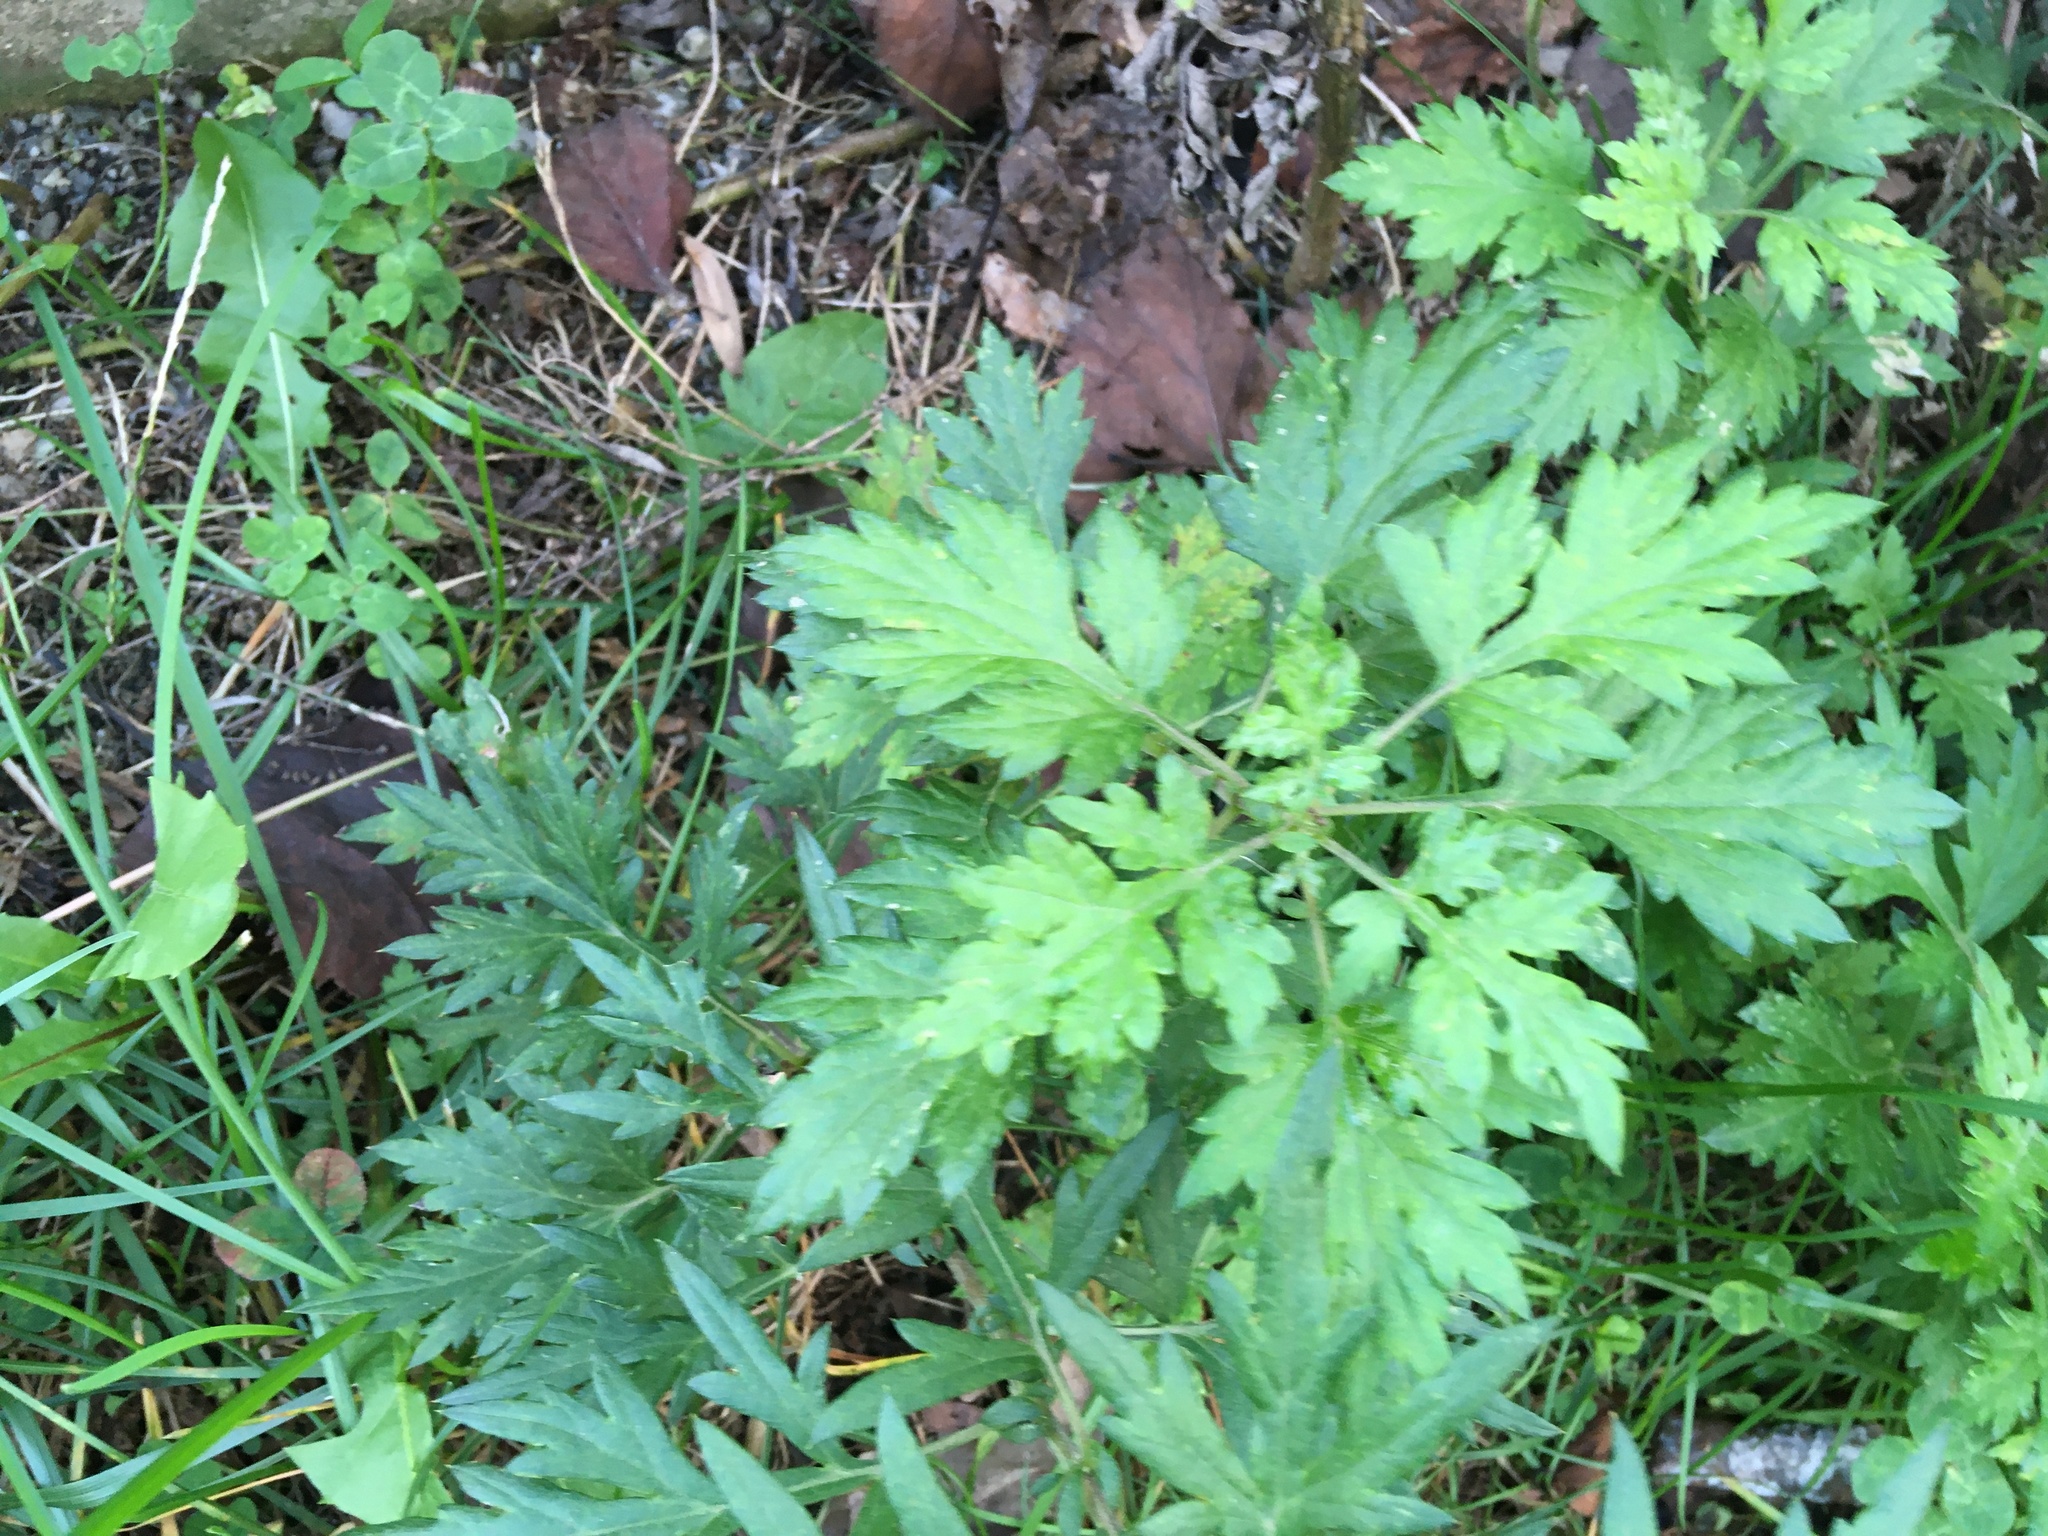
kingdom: Plantae
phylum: Tracheophyta
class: Magnoliopsida
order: Asterales
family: Asteraceae
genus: Artemisia
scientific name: Artemisia vulgaris
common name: Mugwort
